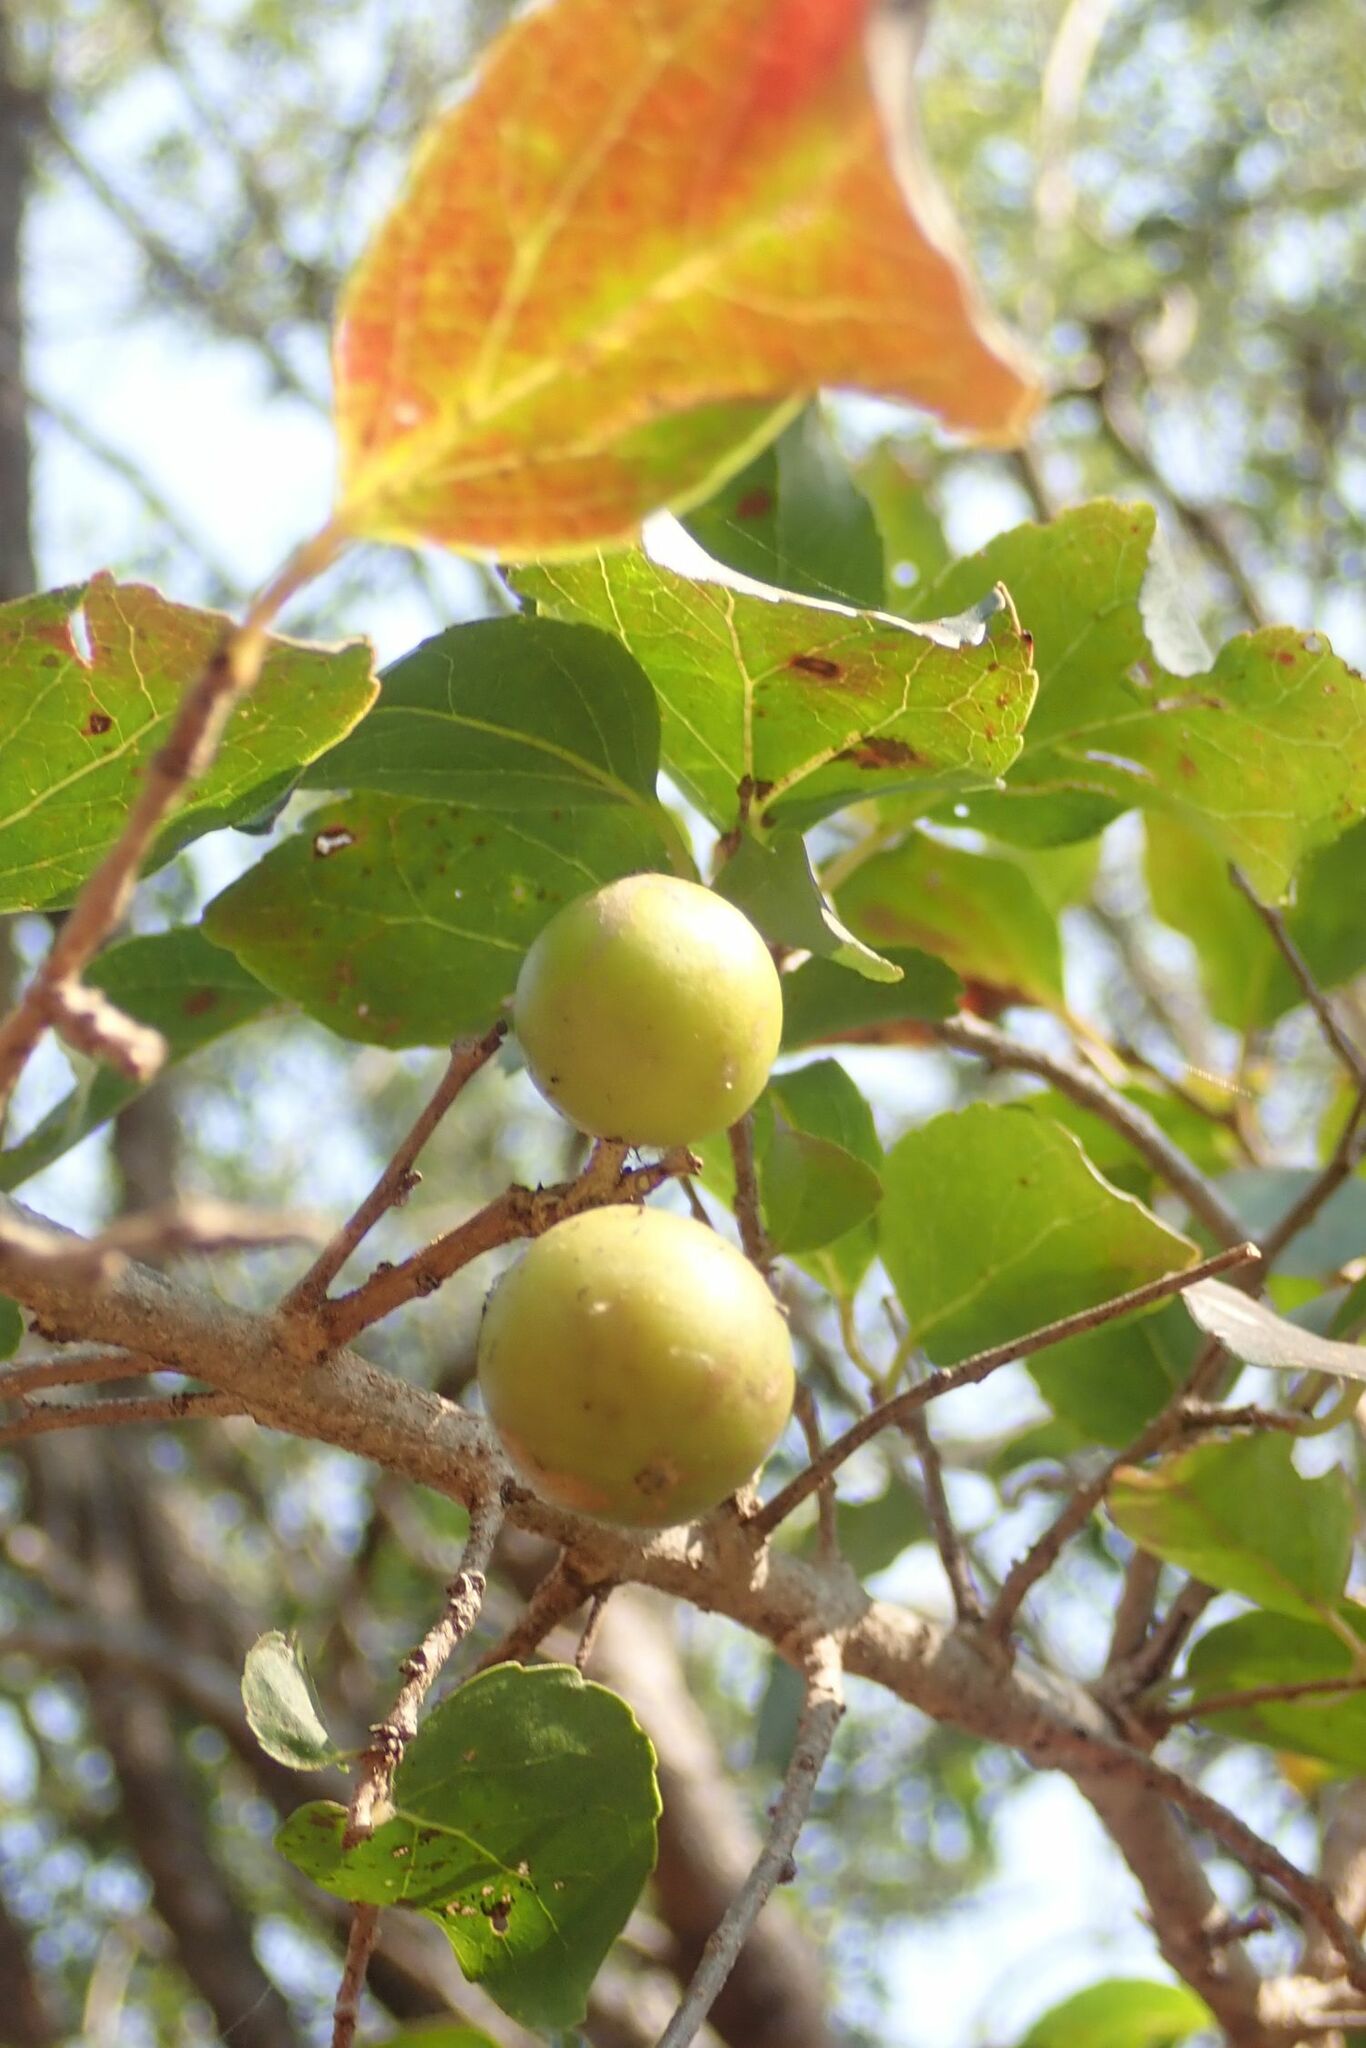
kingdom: Plantae
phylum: Tracheophyta
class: Magnoliopsida
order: Malpighiales
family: Salicaceae
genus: Flacourtia
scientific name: Flacourtia indica
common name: Governor's plum
